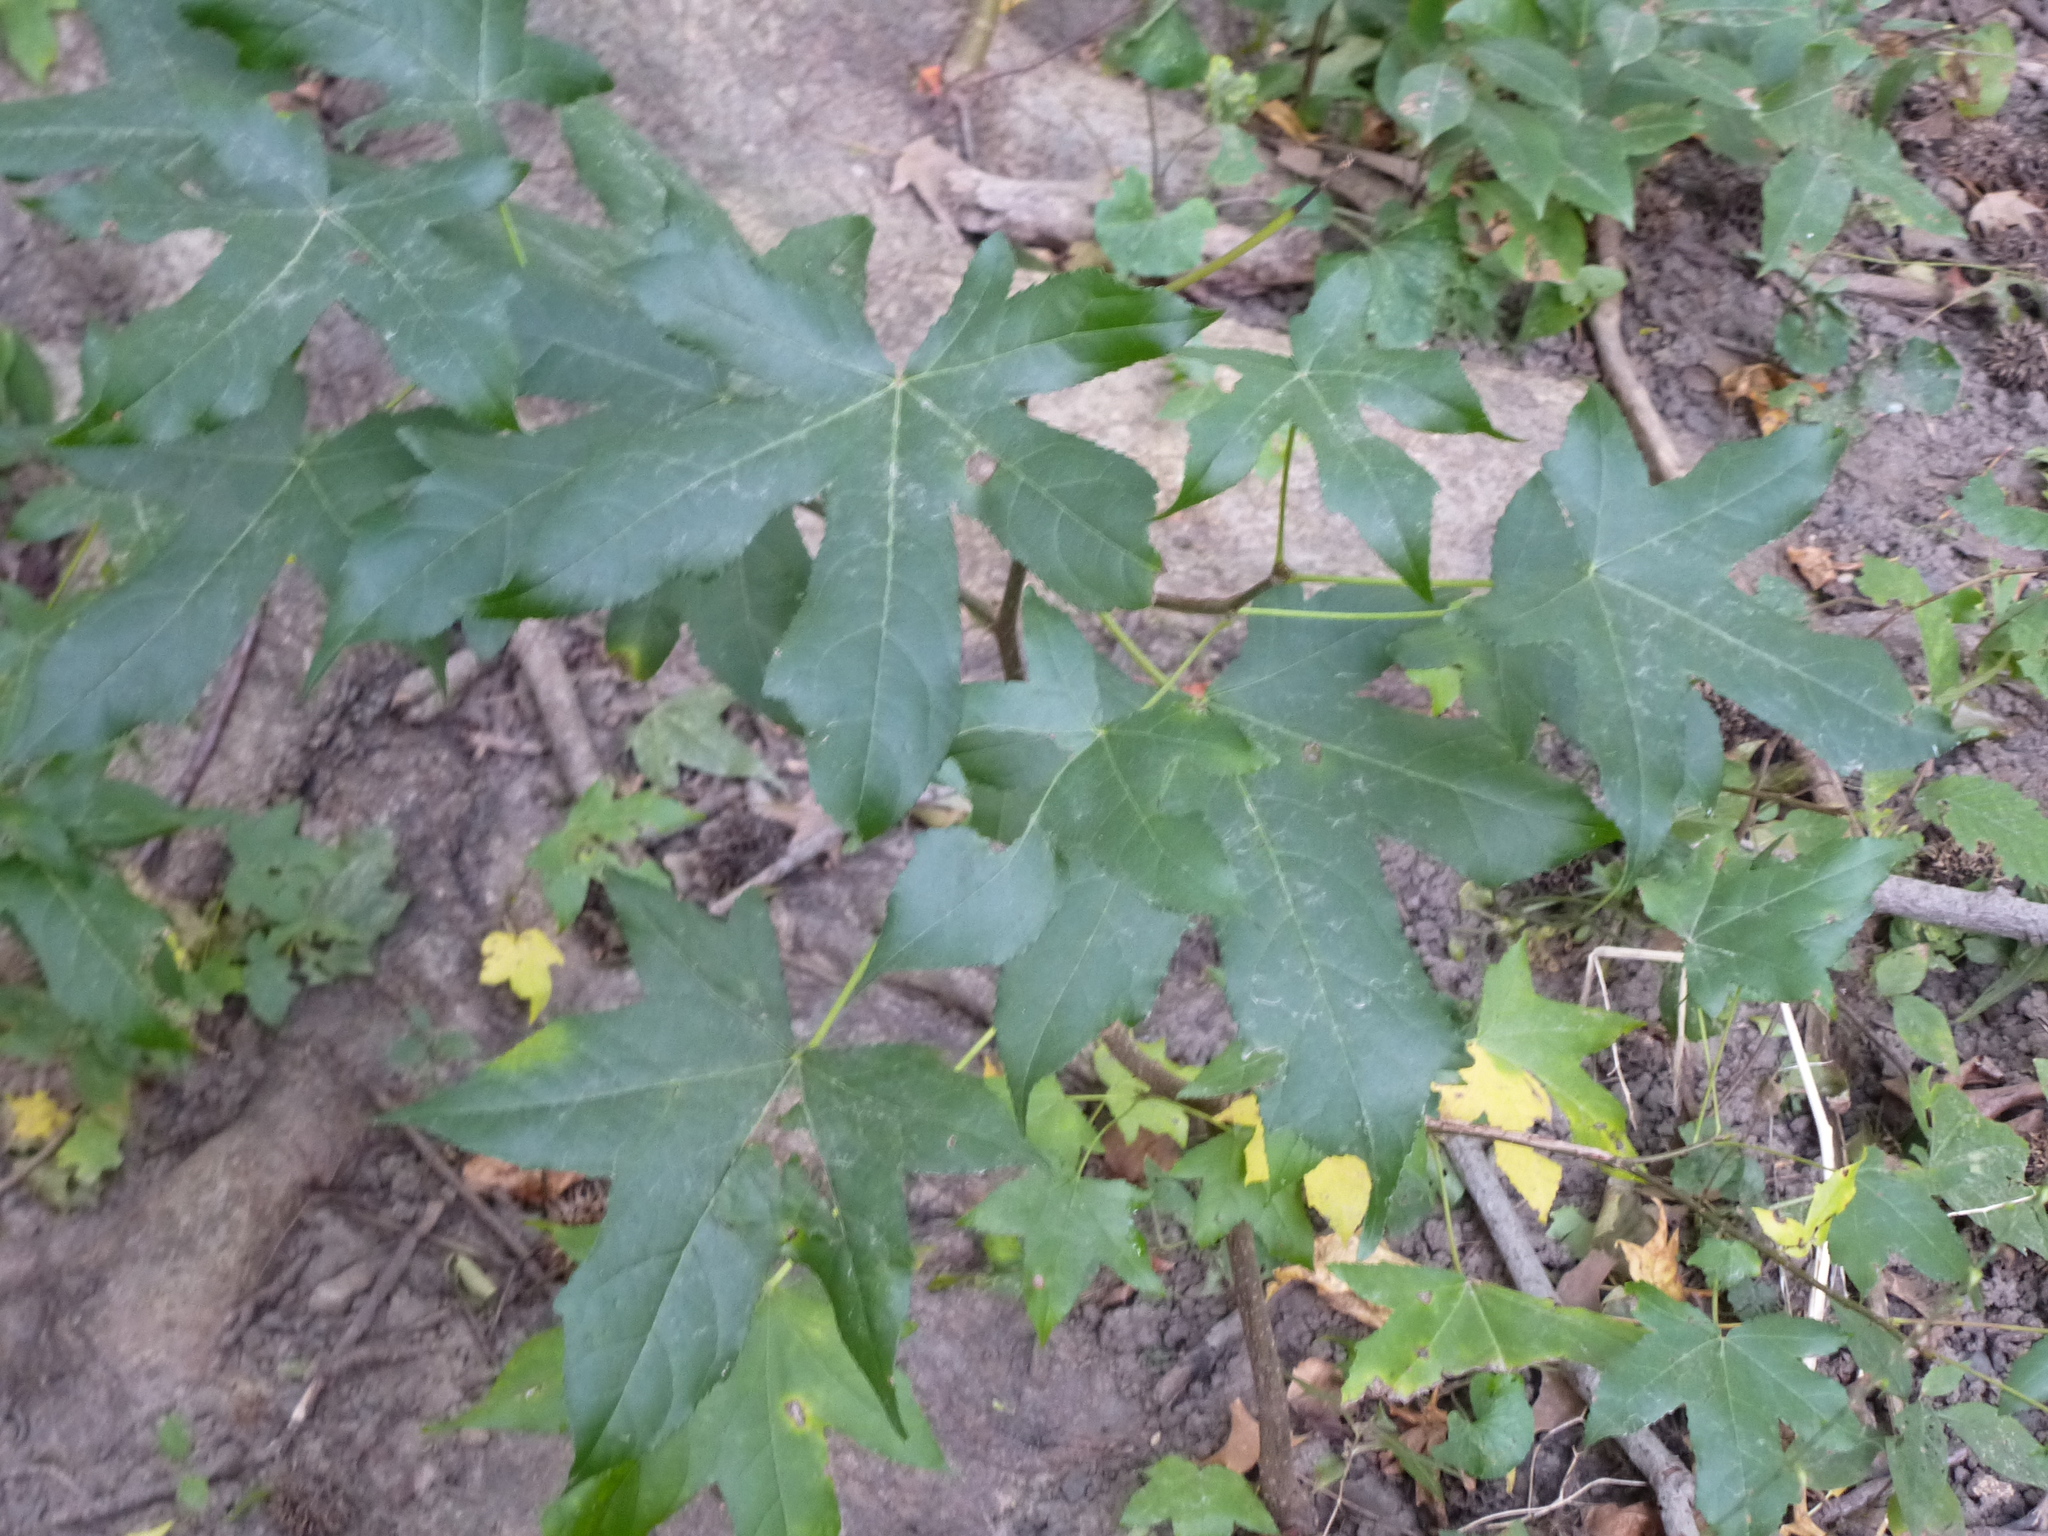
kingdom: Plantae
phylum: Tracheophyta
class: Magnoliopsida
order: Saxifragales
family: Altingiaceae
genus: Liquidambar
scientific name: Liquidambar styraciflua
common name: Sweet gum
